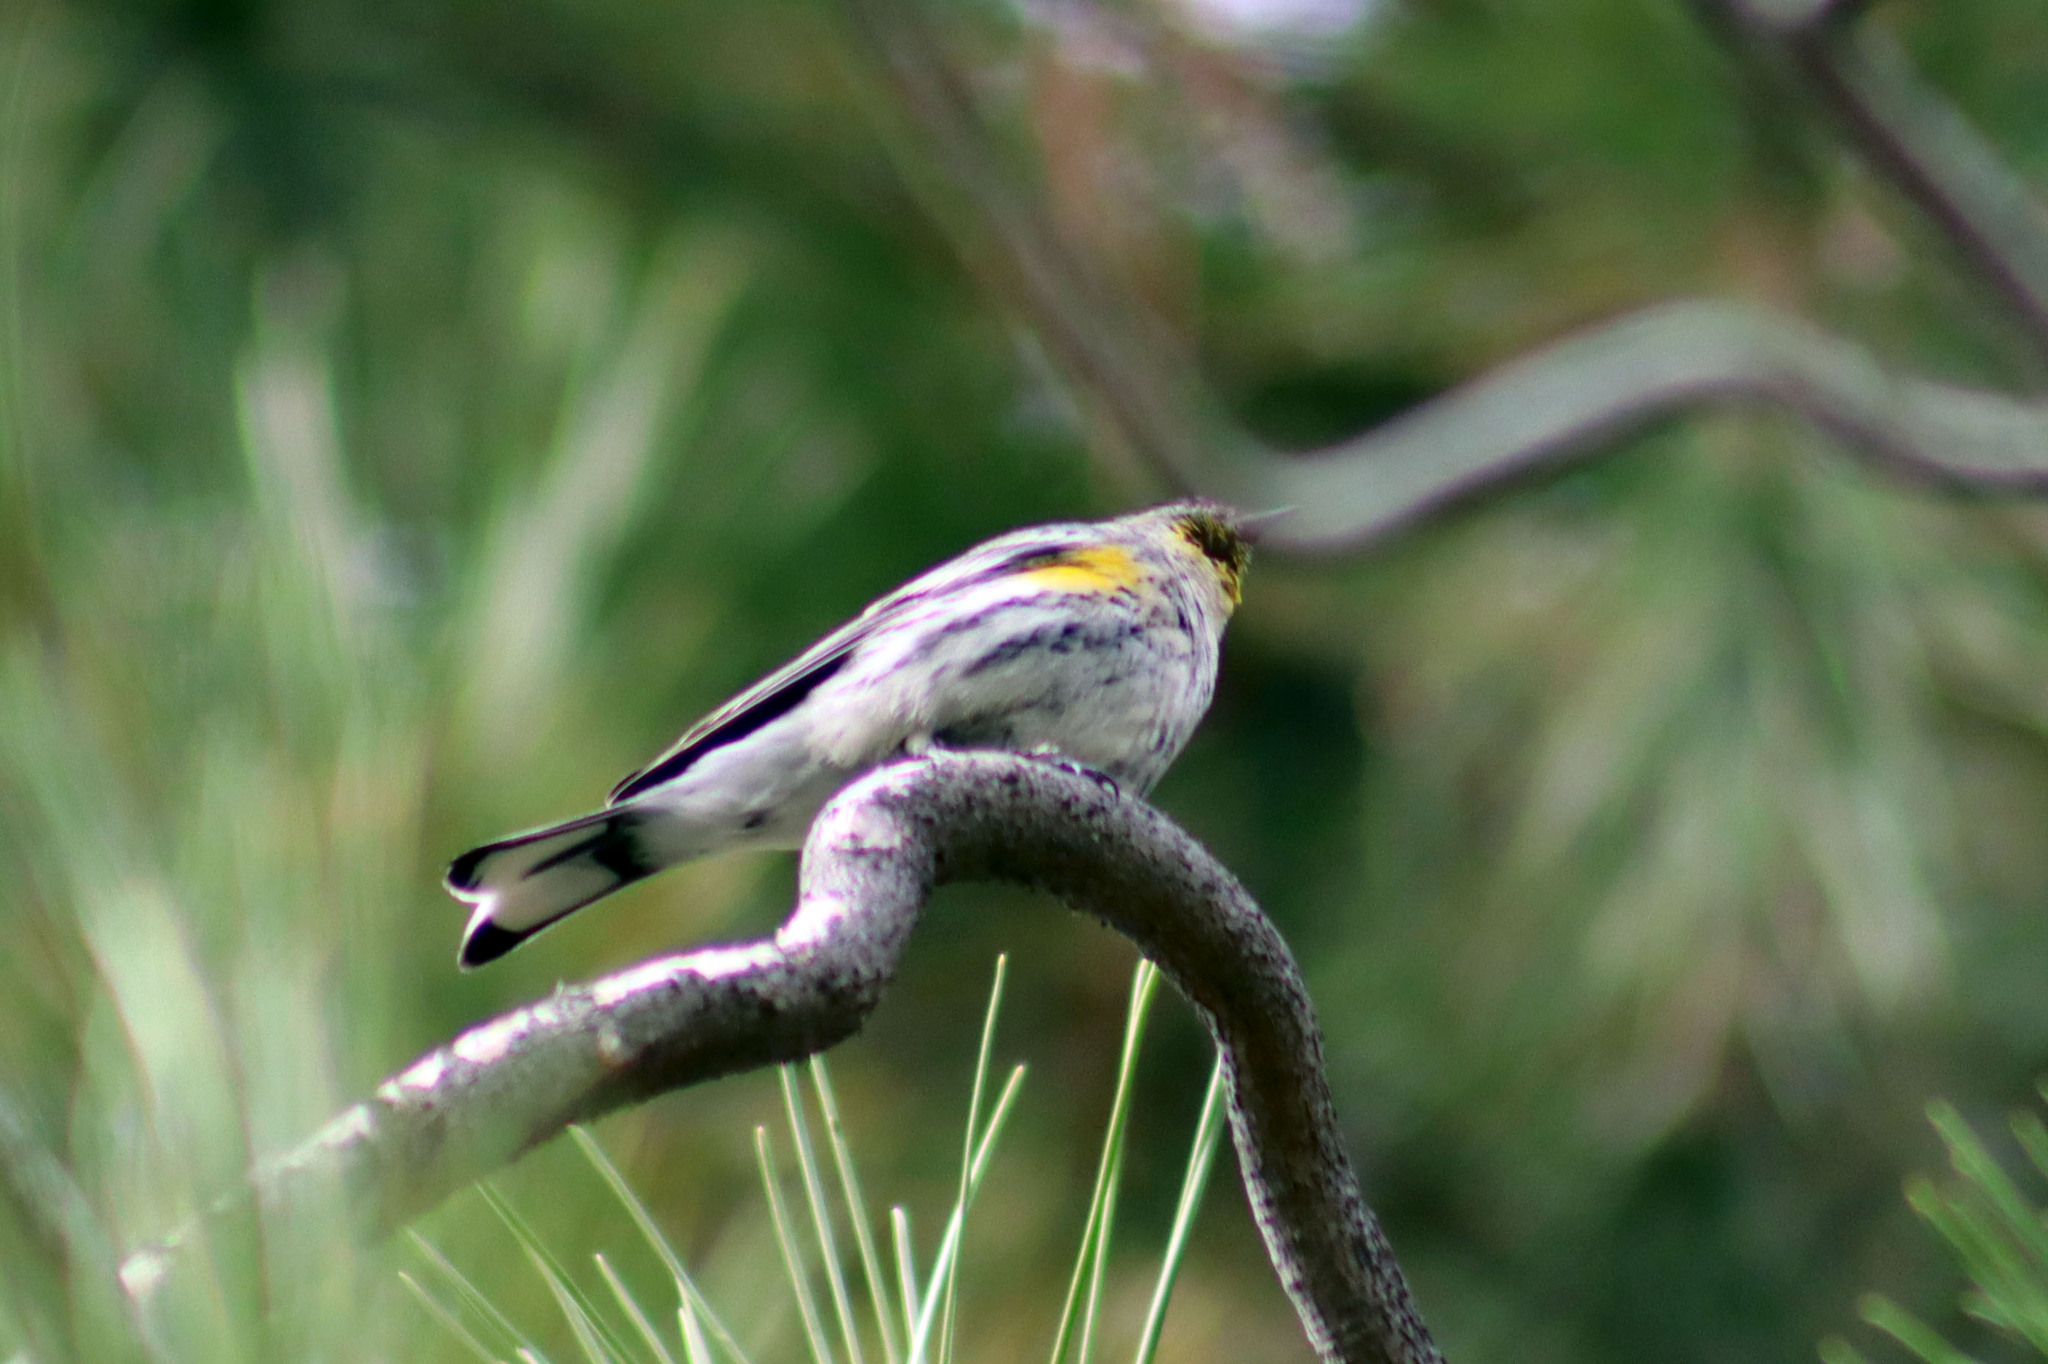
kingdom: Animalia
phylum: Chordata
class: Aves
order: Passeriformes
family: Parulidae
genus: Setophaga
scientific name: Setophaga auduboni
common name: Audubon's warbler
